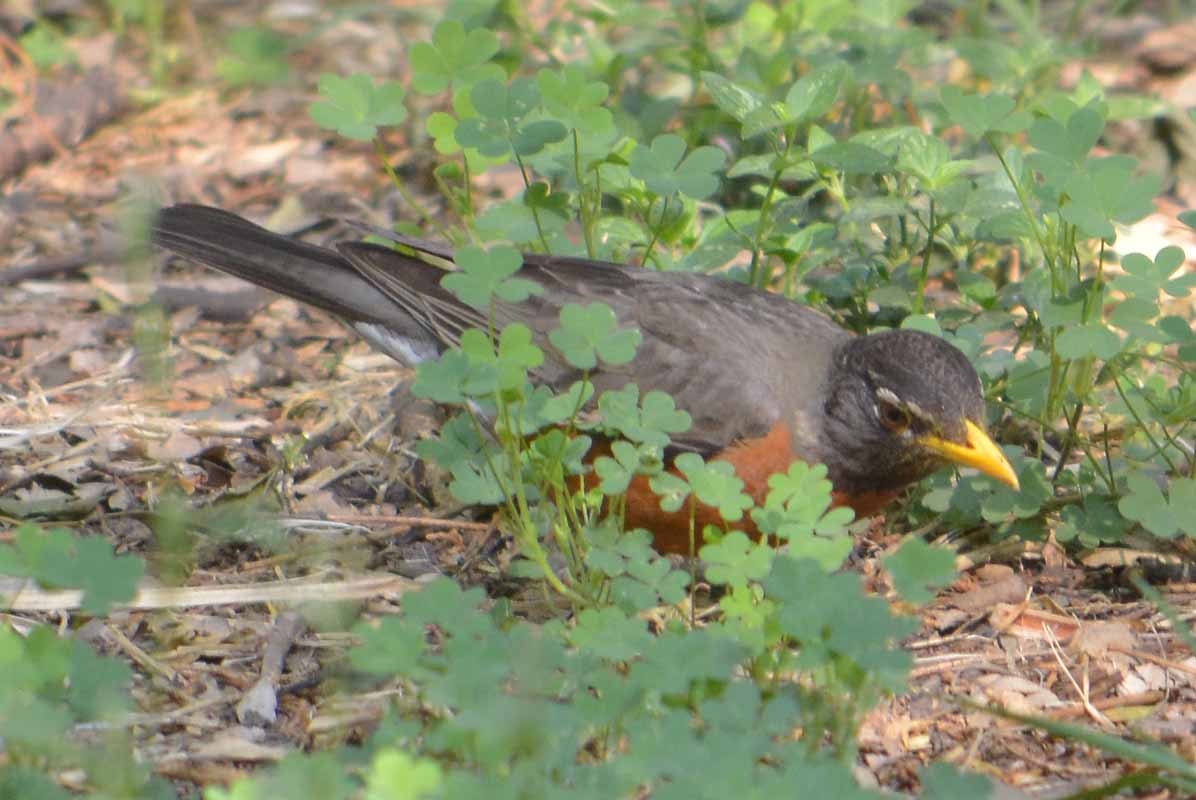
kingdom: Animalia
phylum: Chordata
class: Aves
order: Passeriformes
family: Turdidae
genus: Turdus
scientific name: Turdus migratorius
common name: American robin
